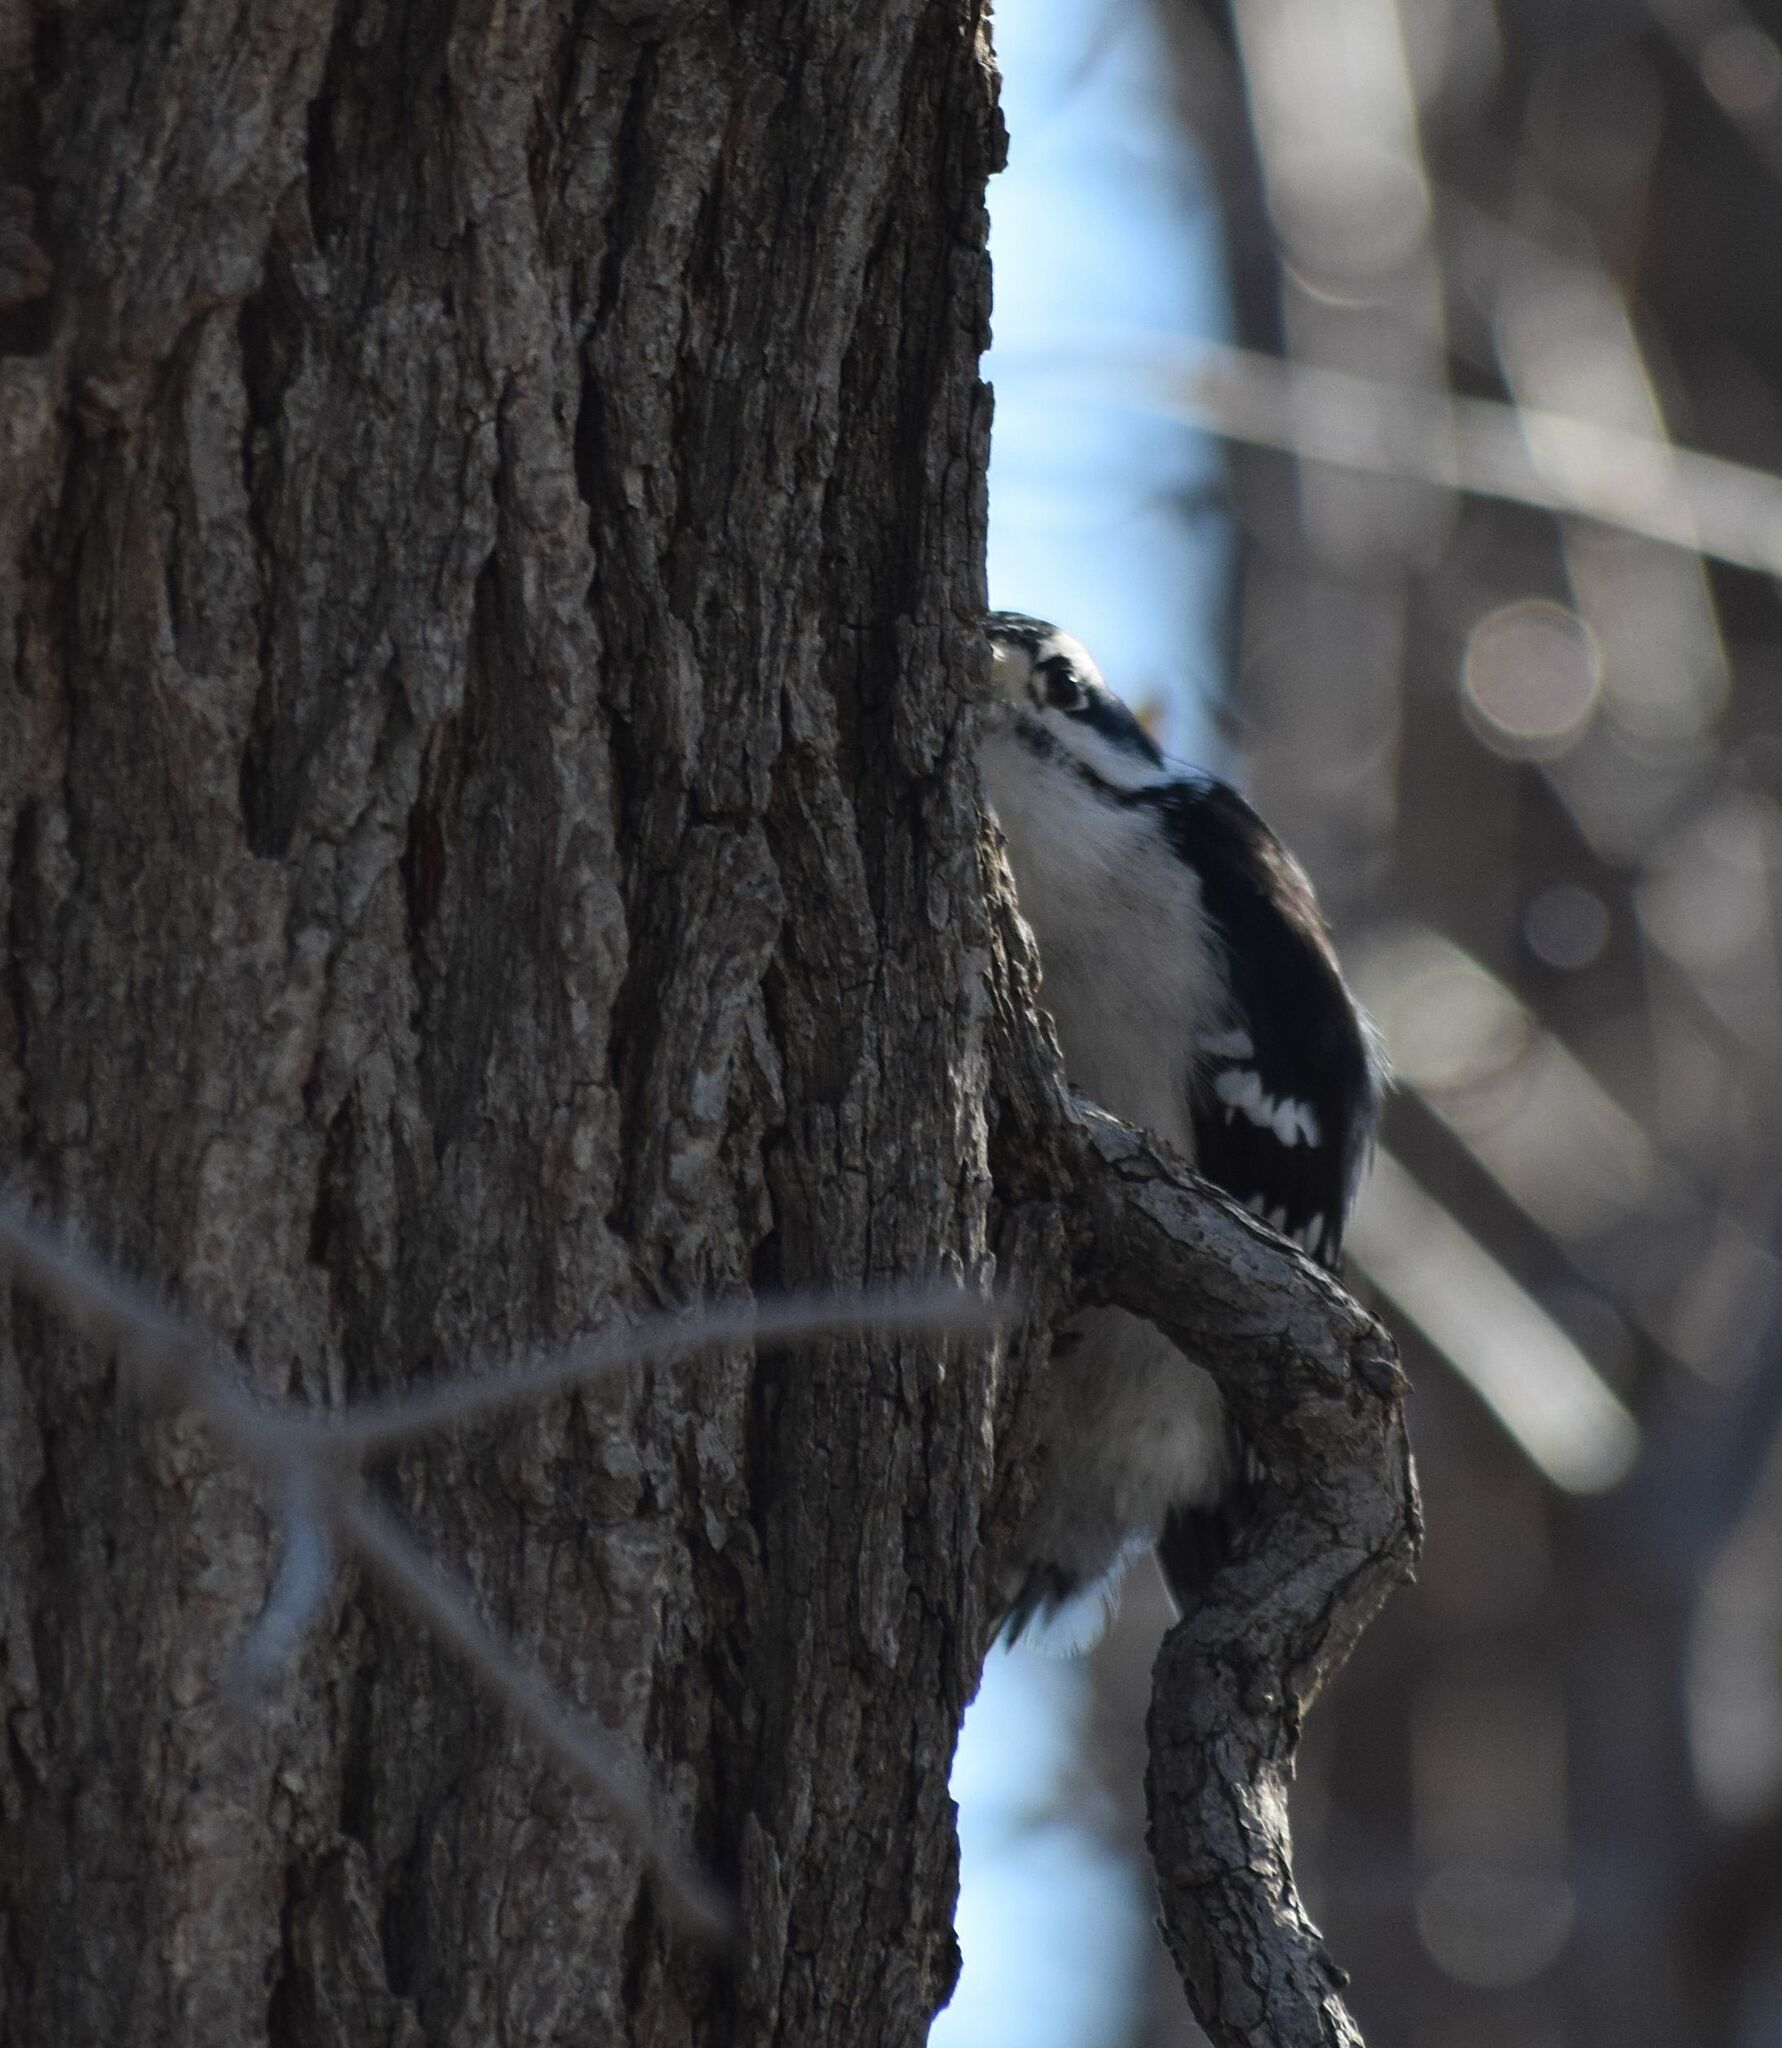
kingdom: Animalia
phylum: Chordata
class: Aves
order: Piciformes
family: Picidae
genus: Dryobates
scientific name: Dryobates pubescens
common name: Downy woodpecker
